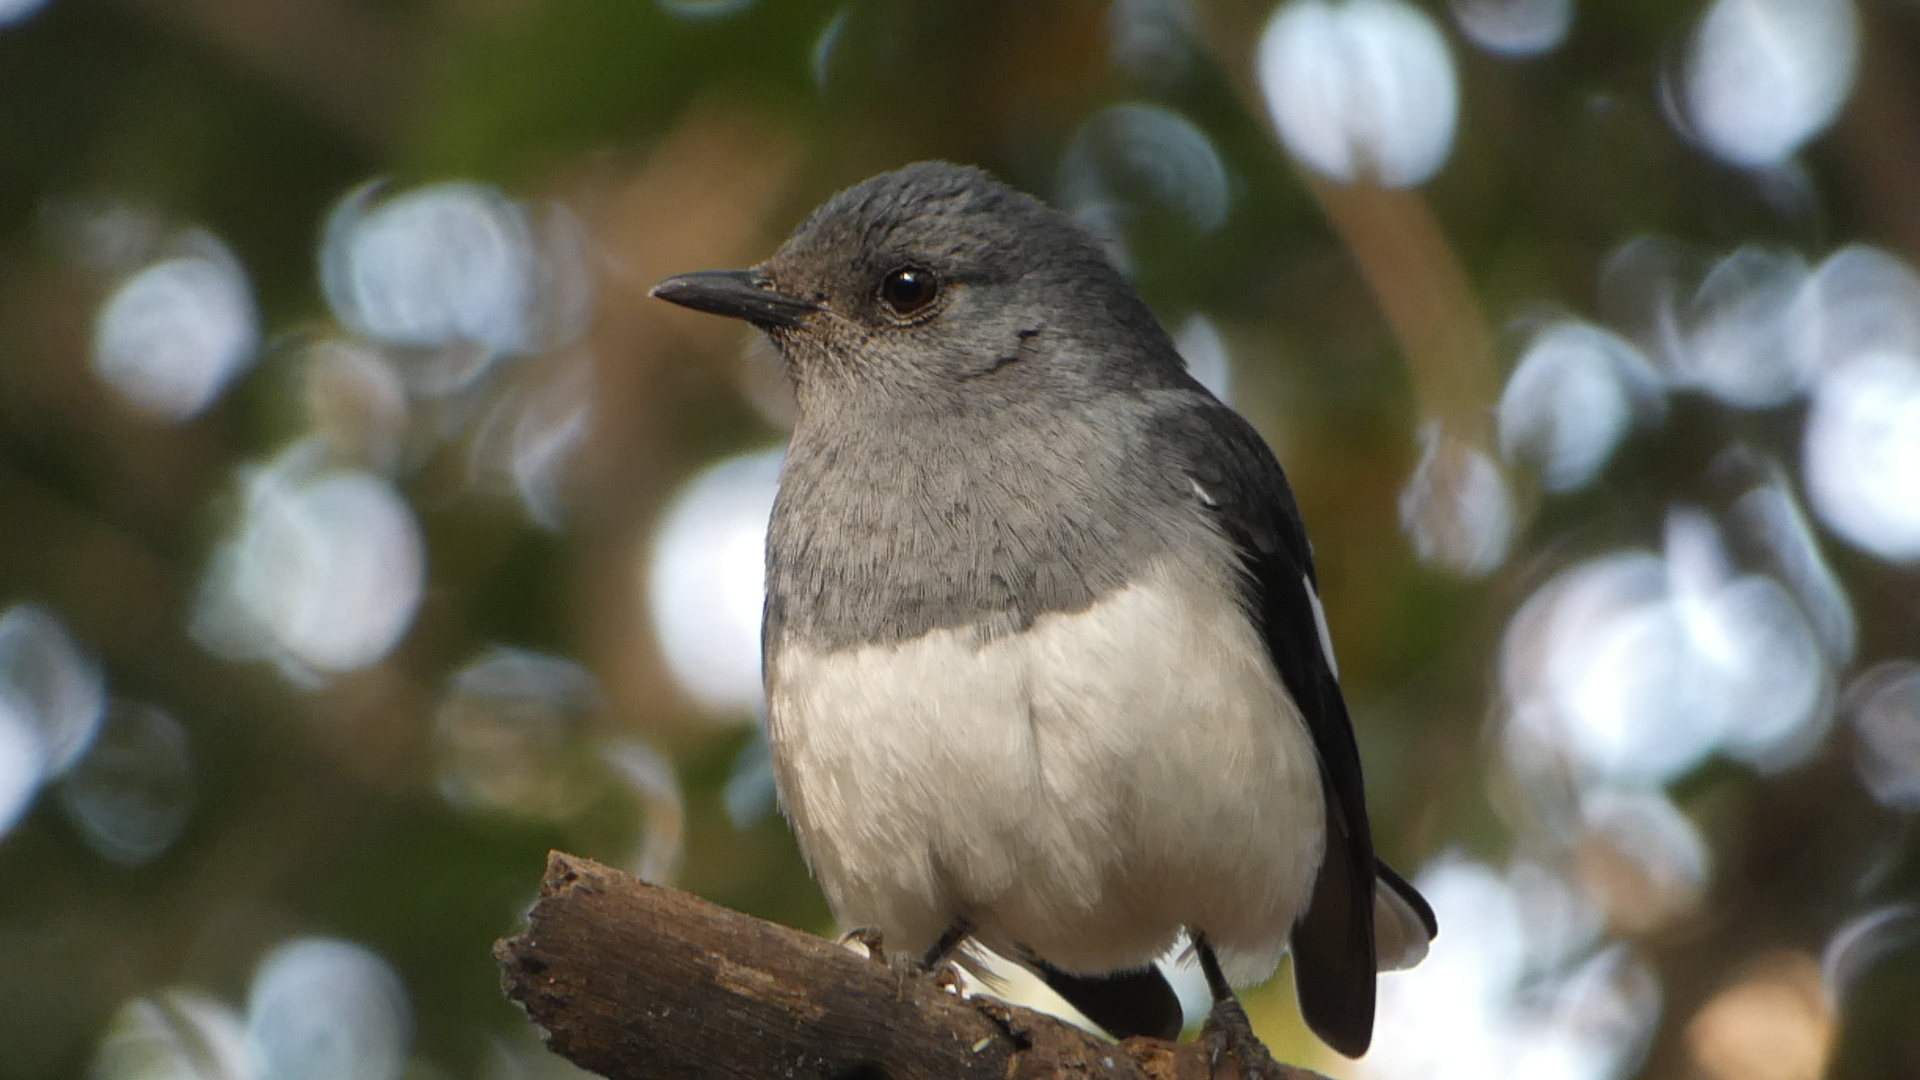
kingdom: Animalia
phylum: Chordata
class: Aves
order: Passeriformes
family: Muscicapidae
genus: Copsychus
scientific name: Copsychus saularis
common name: Oriental magpie-robin
